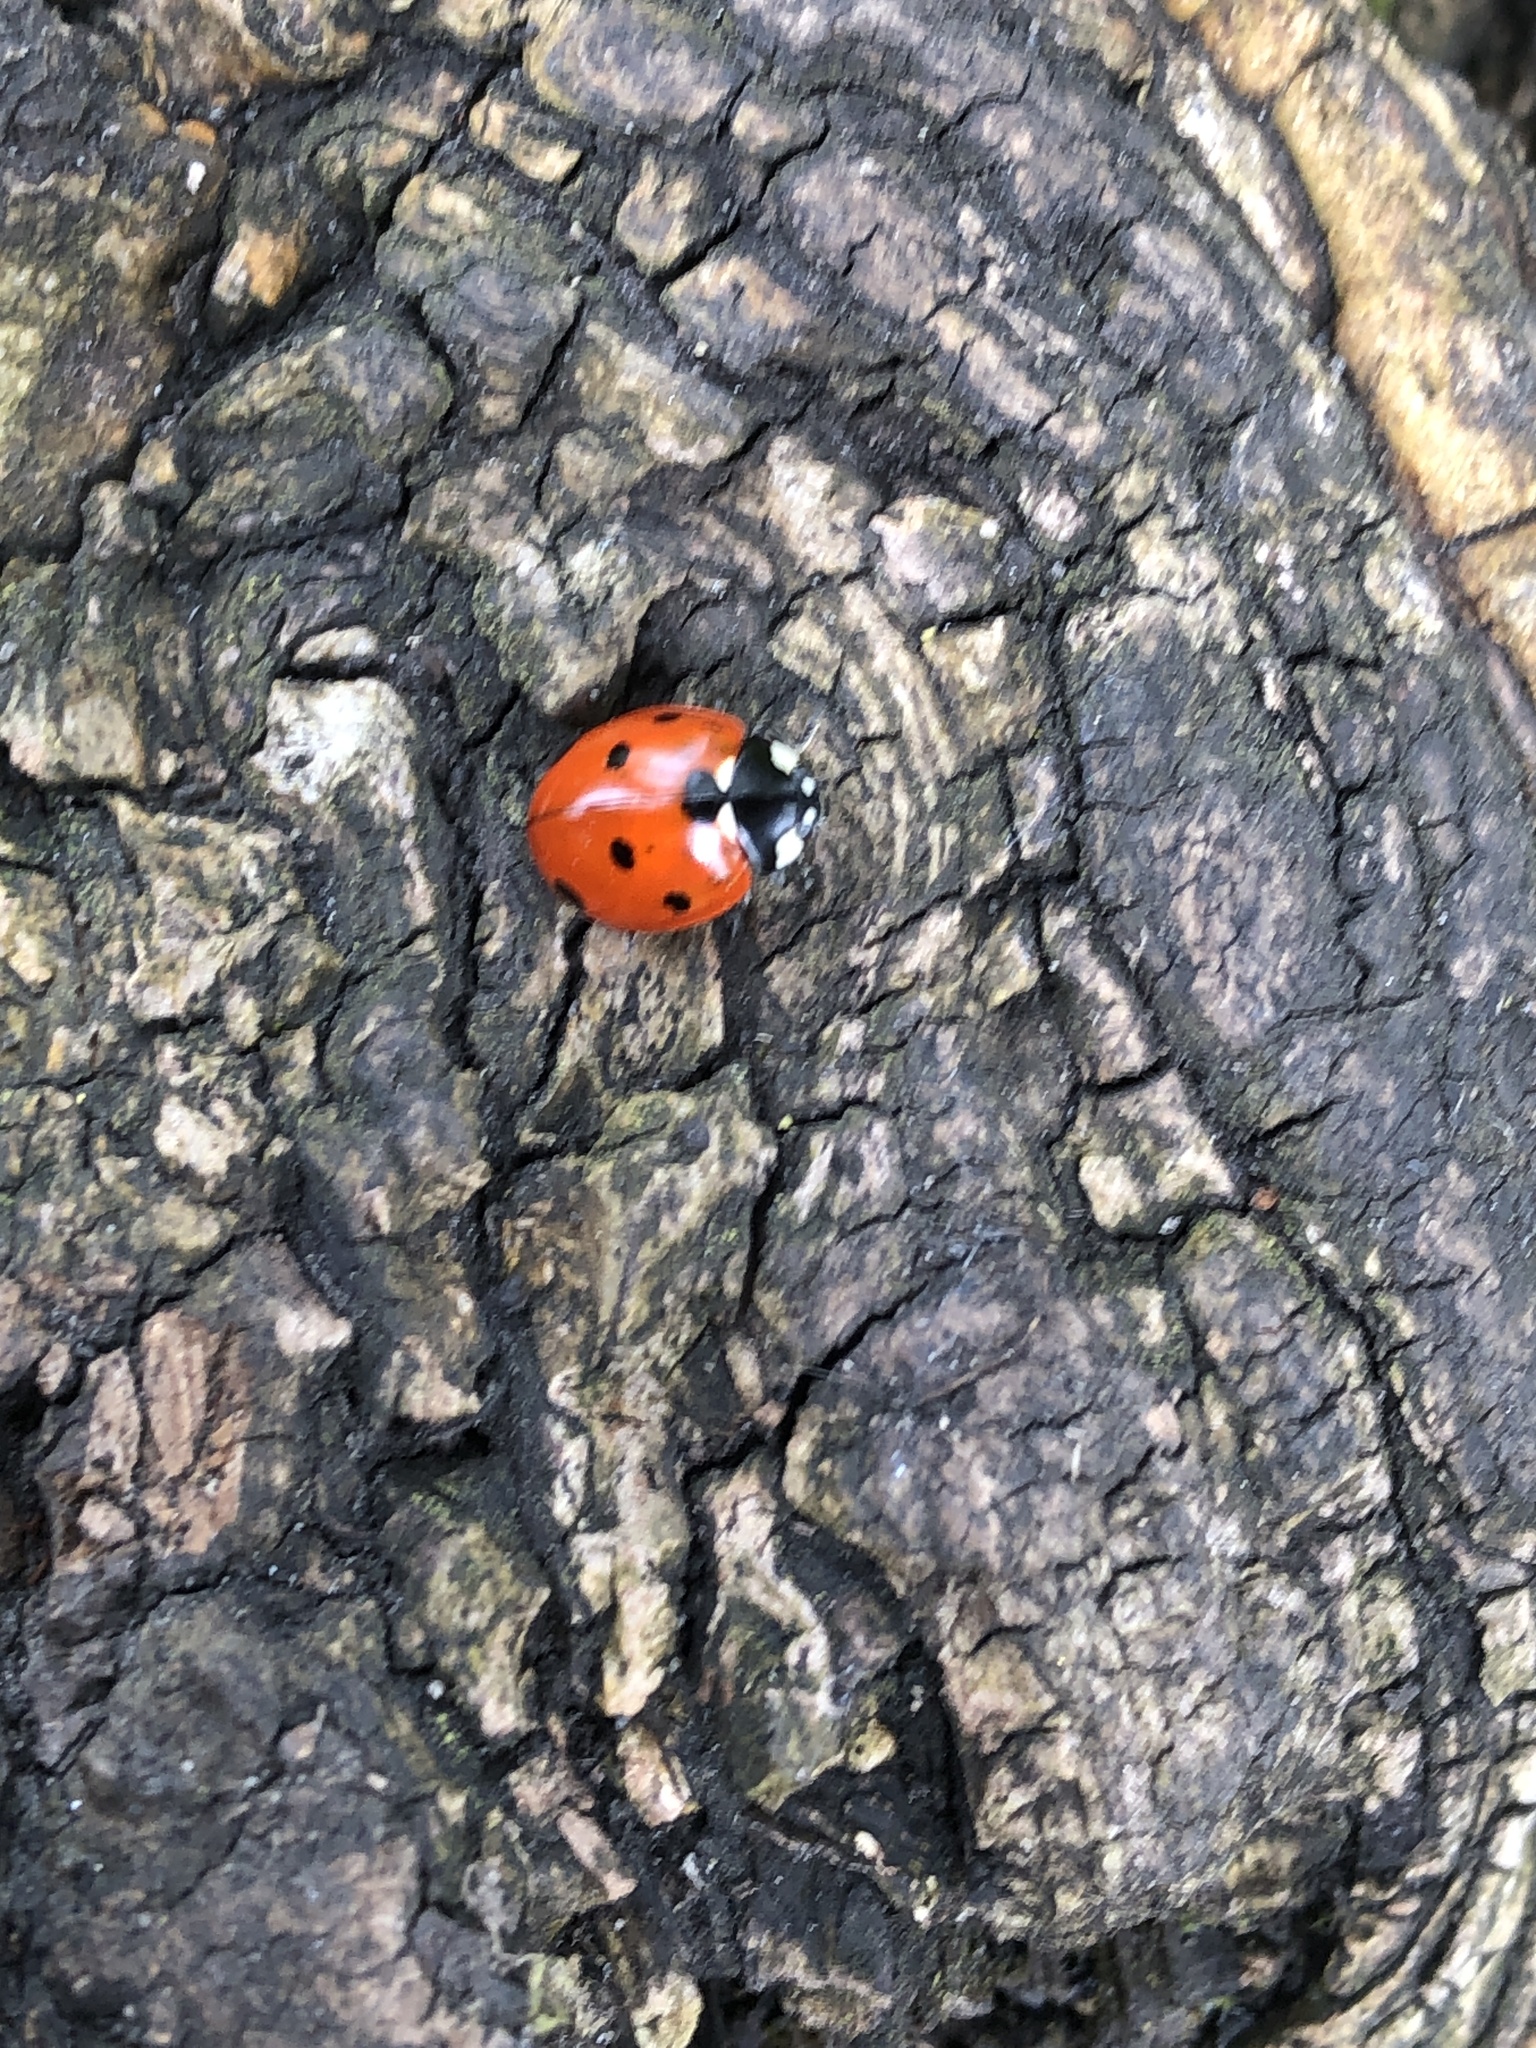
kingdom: Animalia
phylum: Arthropoda
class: Insecta
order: Coleoptera
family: Coccinellidae
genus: Coccinella
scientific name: Coccinella septempunctata
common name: Sevenspotted lady beetle
